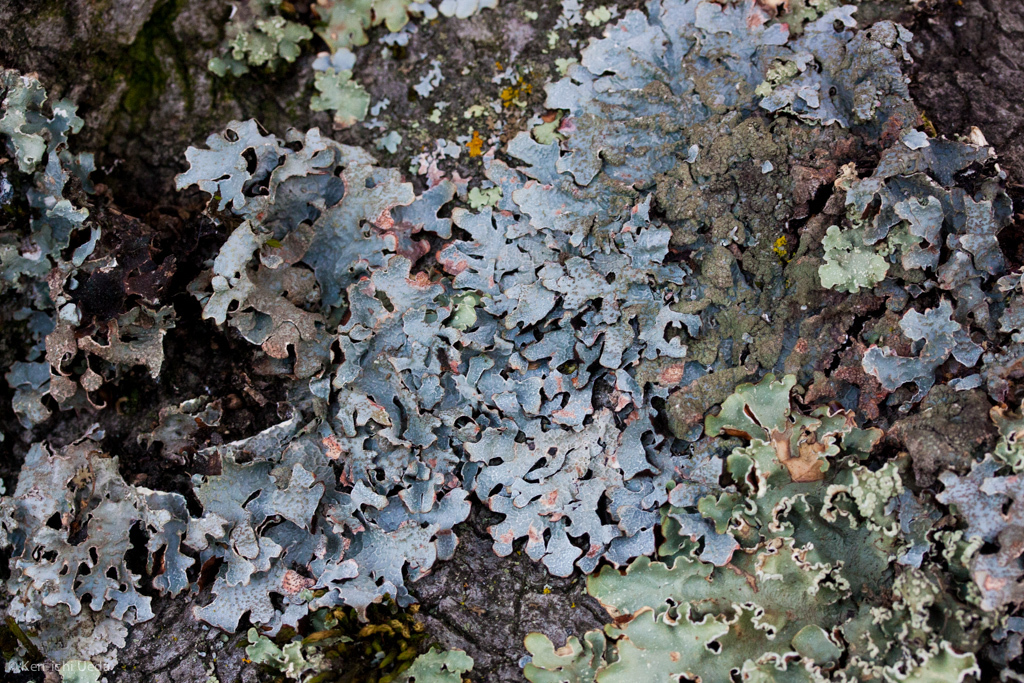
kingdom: Fungi
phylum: Ascomycota
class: Lecanoromycetes
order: Lecanorales
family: Parmeliaceae
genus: Parmelia
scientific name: Parmelia sulcata
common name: Netted shield lichen
